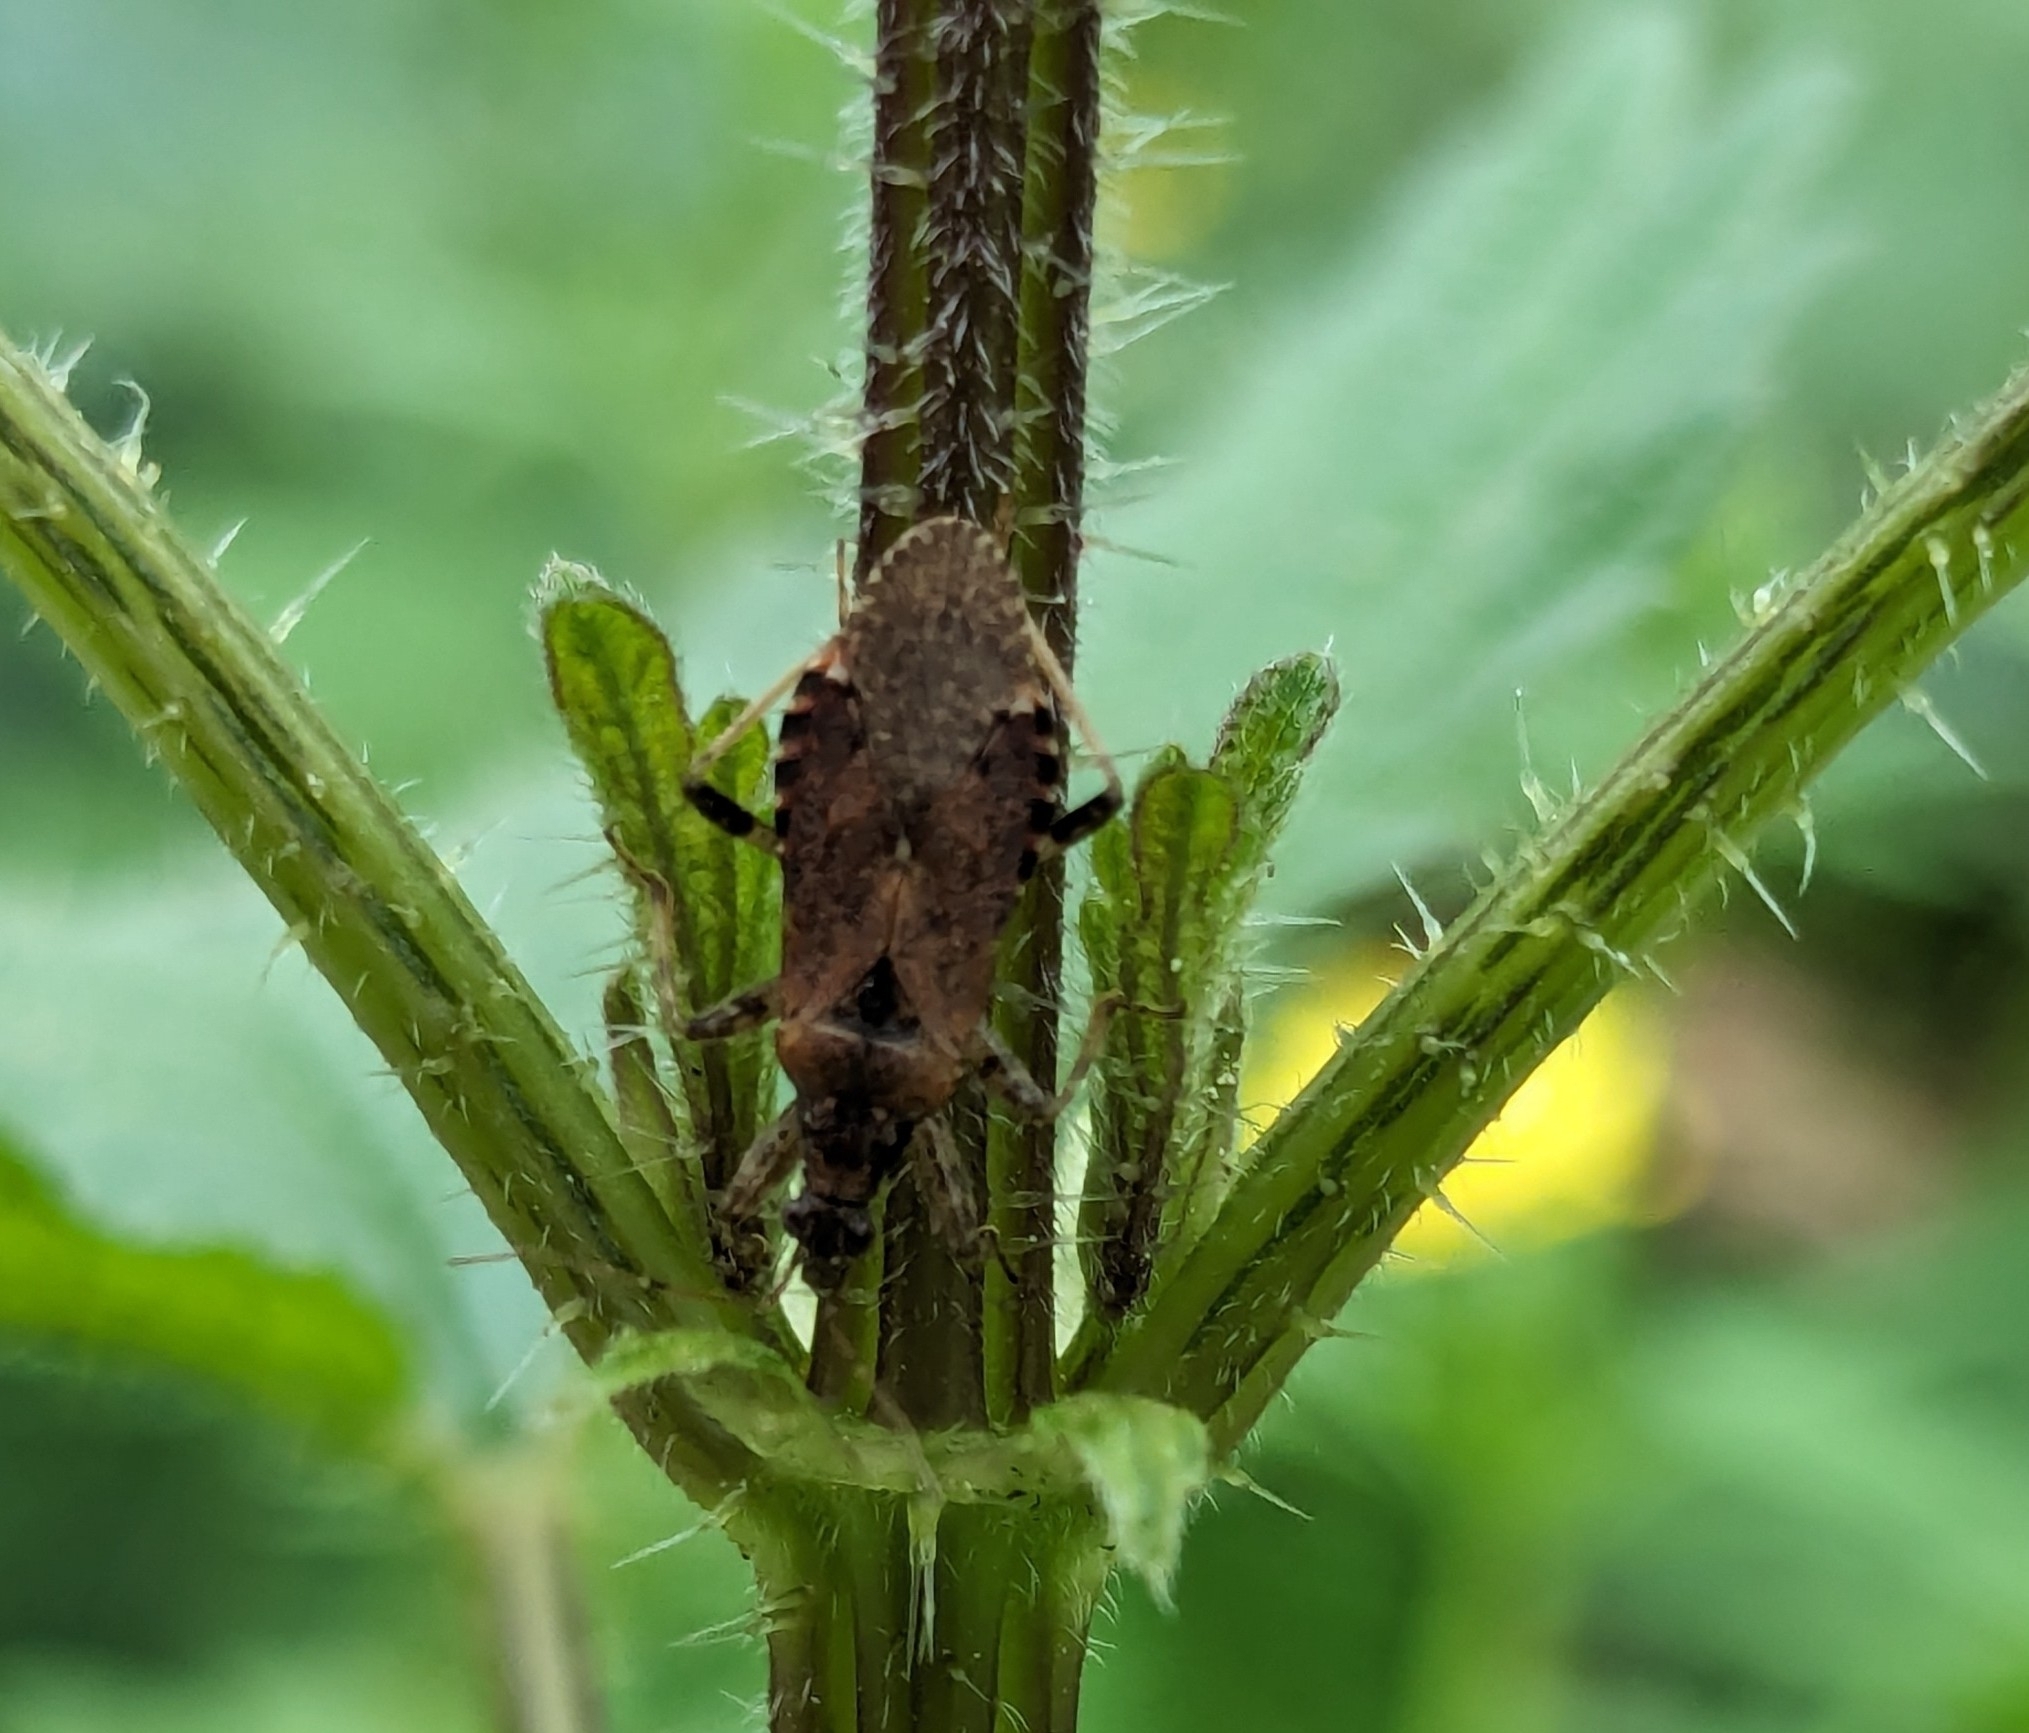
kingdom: Animalia
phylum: Arthropoda
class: Insecta
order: Hemiptera
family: Nabidae
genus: Himacerus
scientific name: Himacerus mirmicoides
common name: Ant damsel bug
